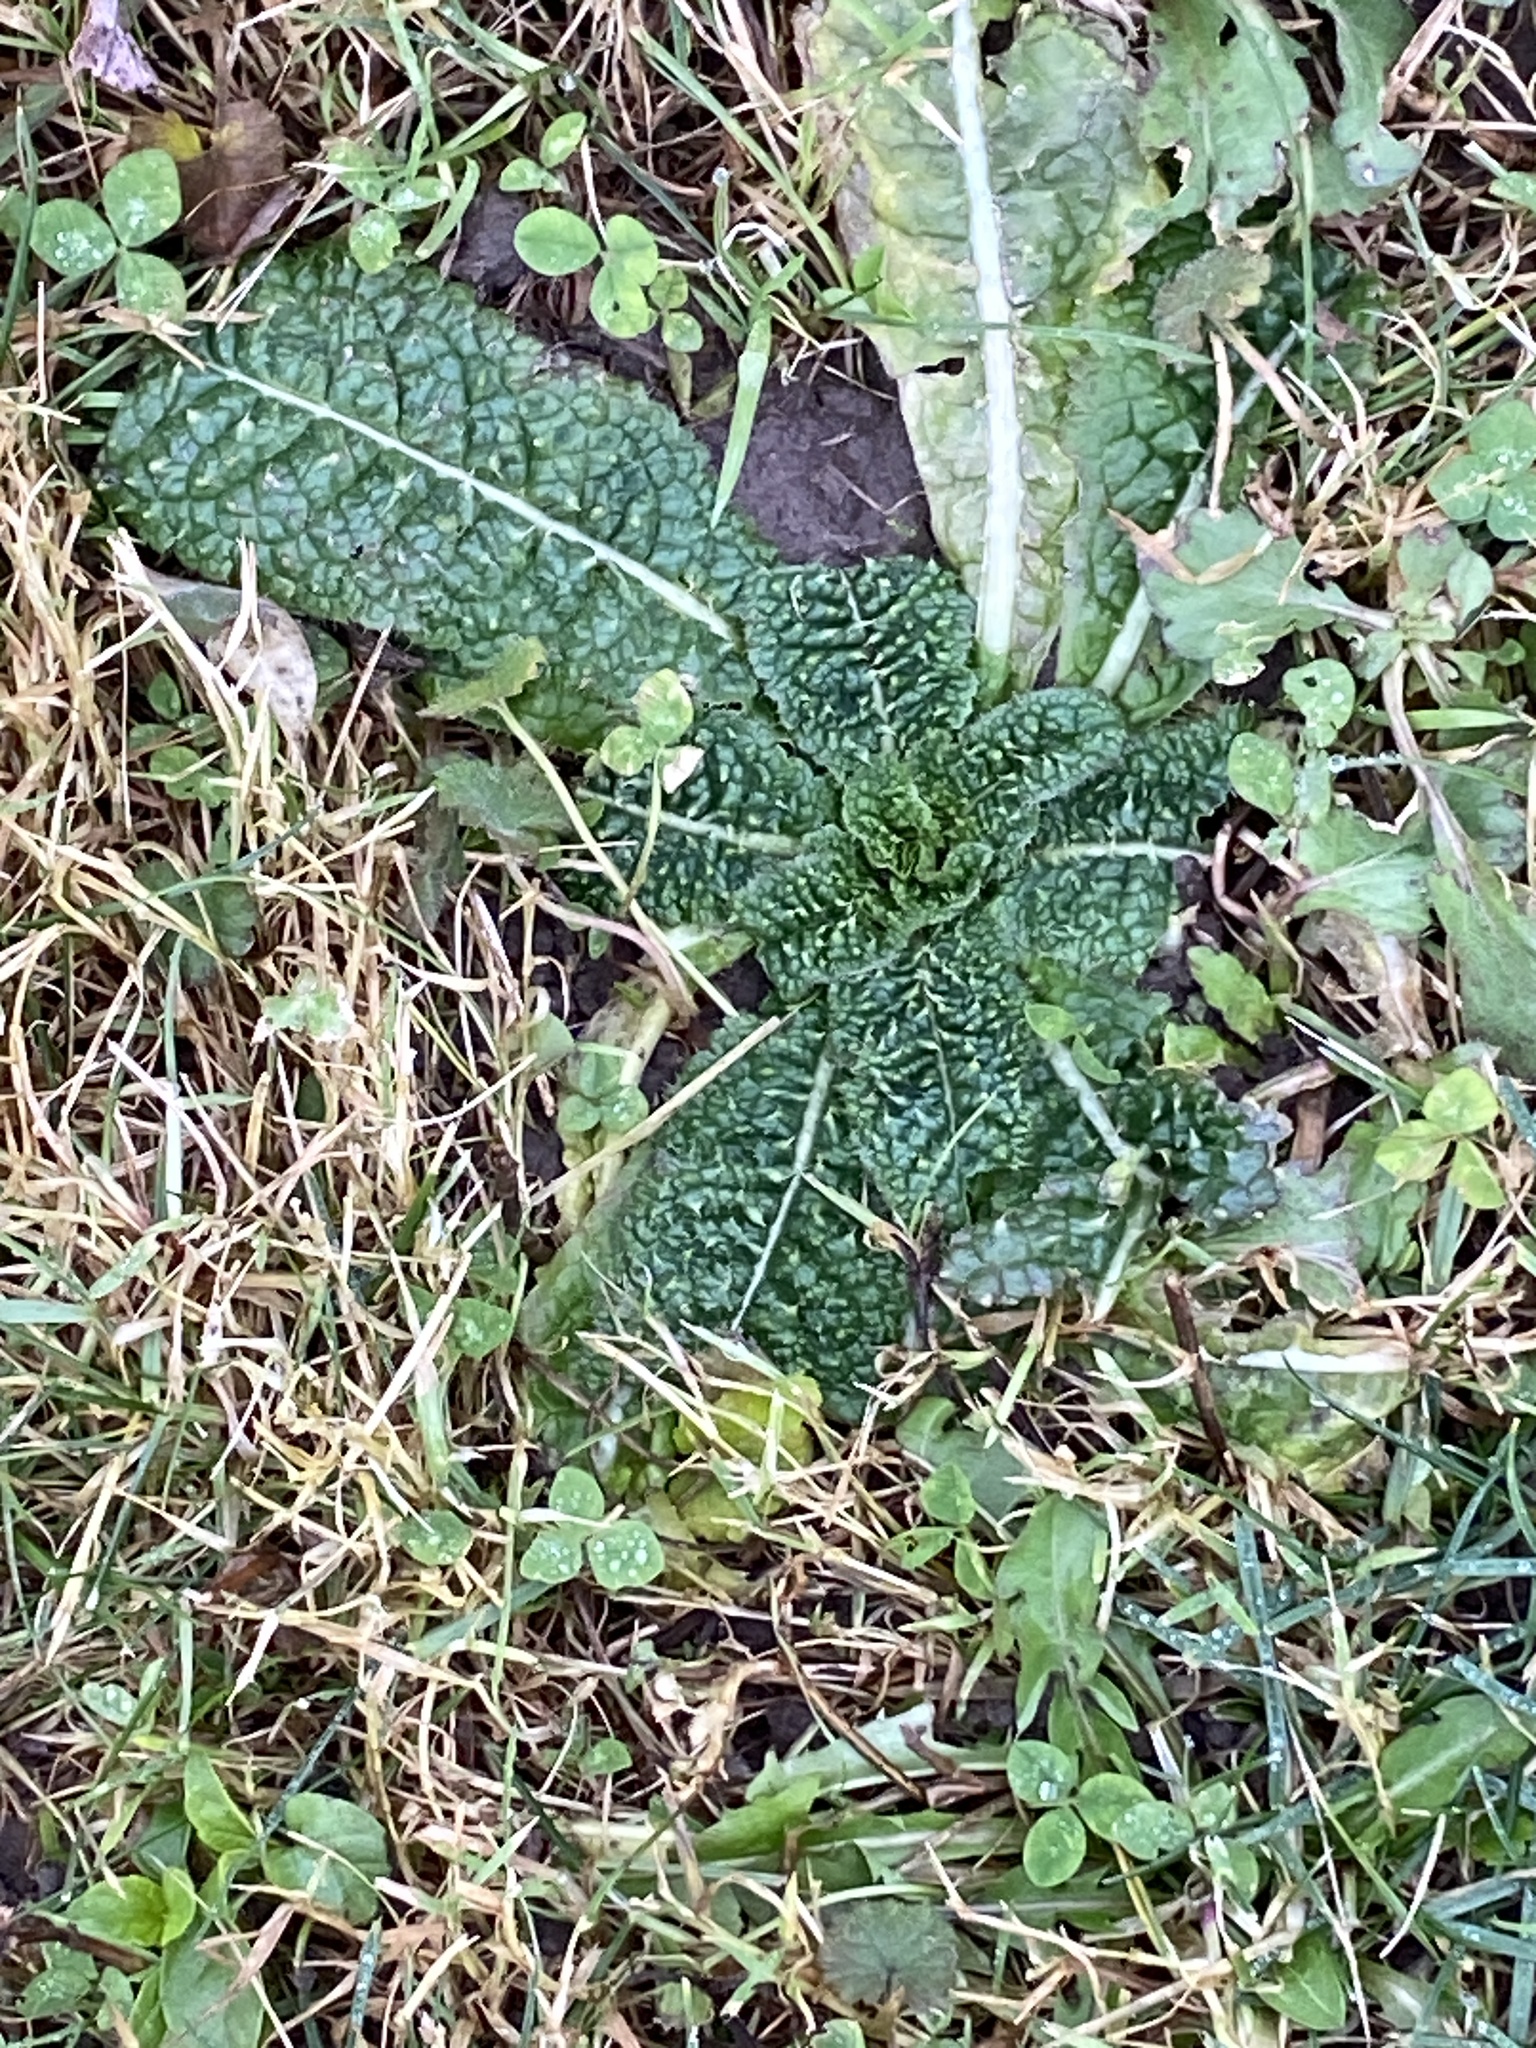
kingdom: Plantae
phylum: Tracheophyta
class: Magnoliopsida
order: Dipsacales
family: Caprifoliaceae
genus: Dipsacus
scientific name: Dipsacus fullonum
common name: Teasel
